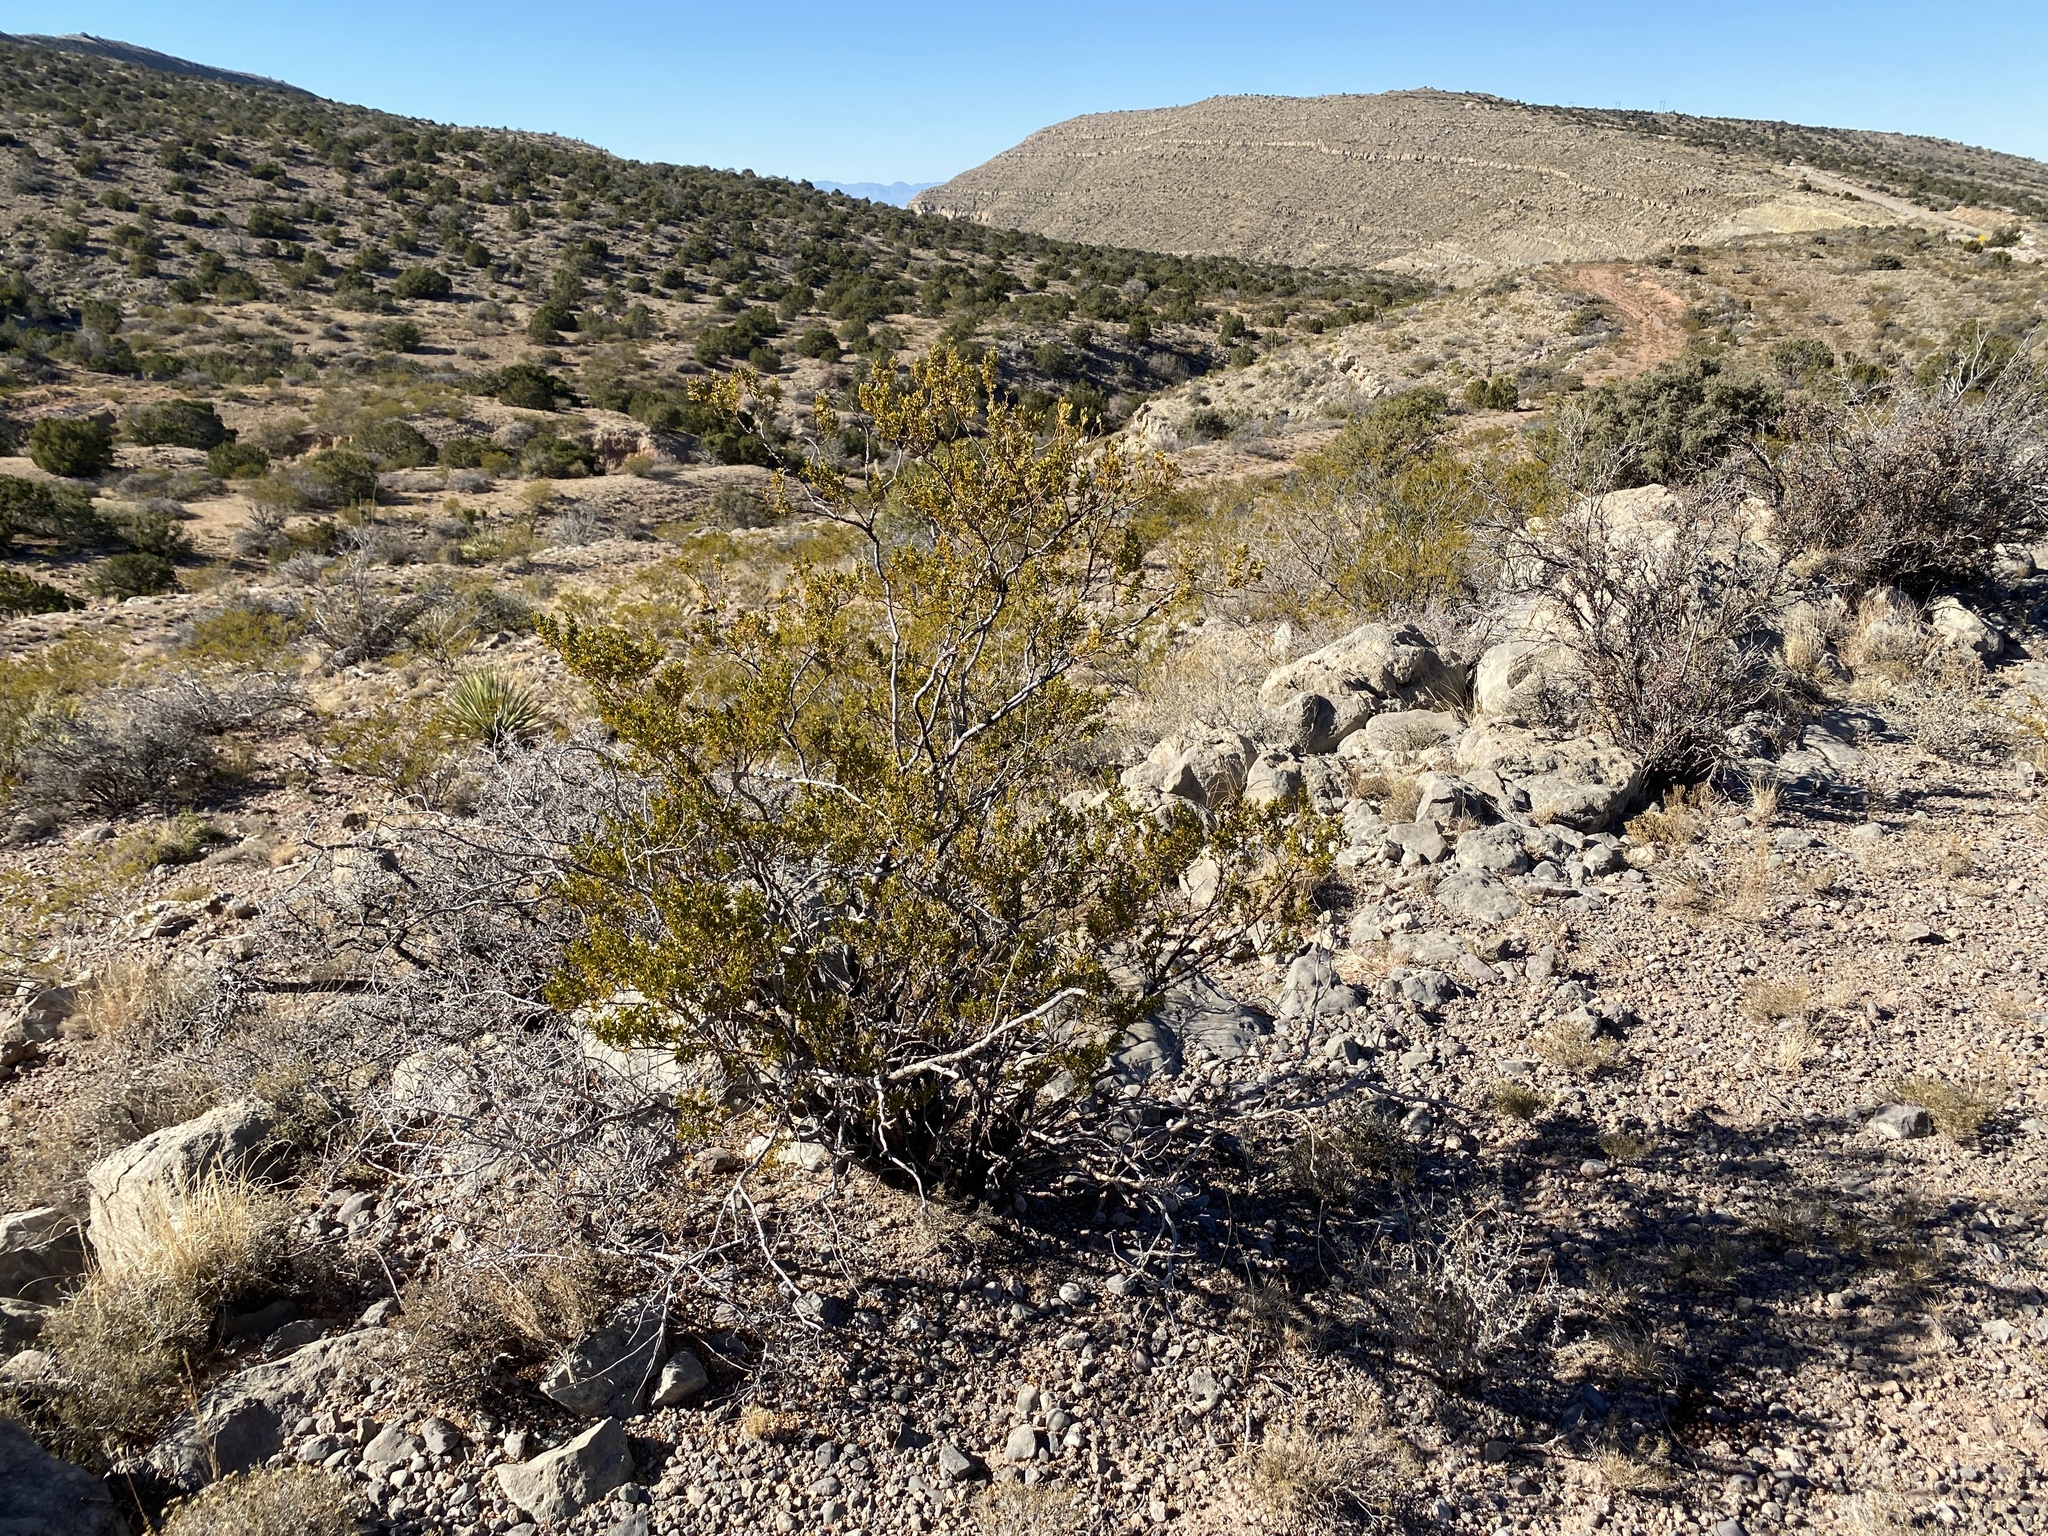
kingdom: Plantae
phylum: Tracheophyta
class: Magnoliopsida
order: Zygophyllales
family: Zygophyllaceae
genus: Larrea
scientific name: Larrea tridentata
